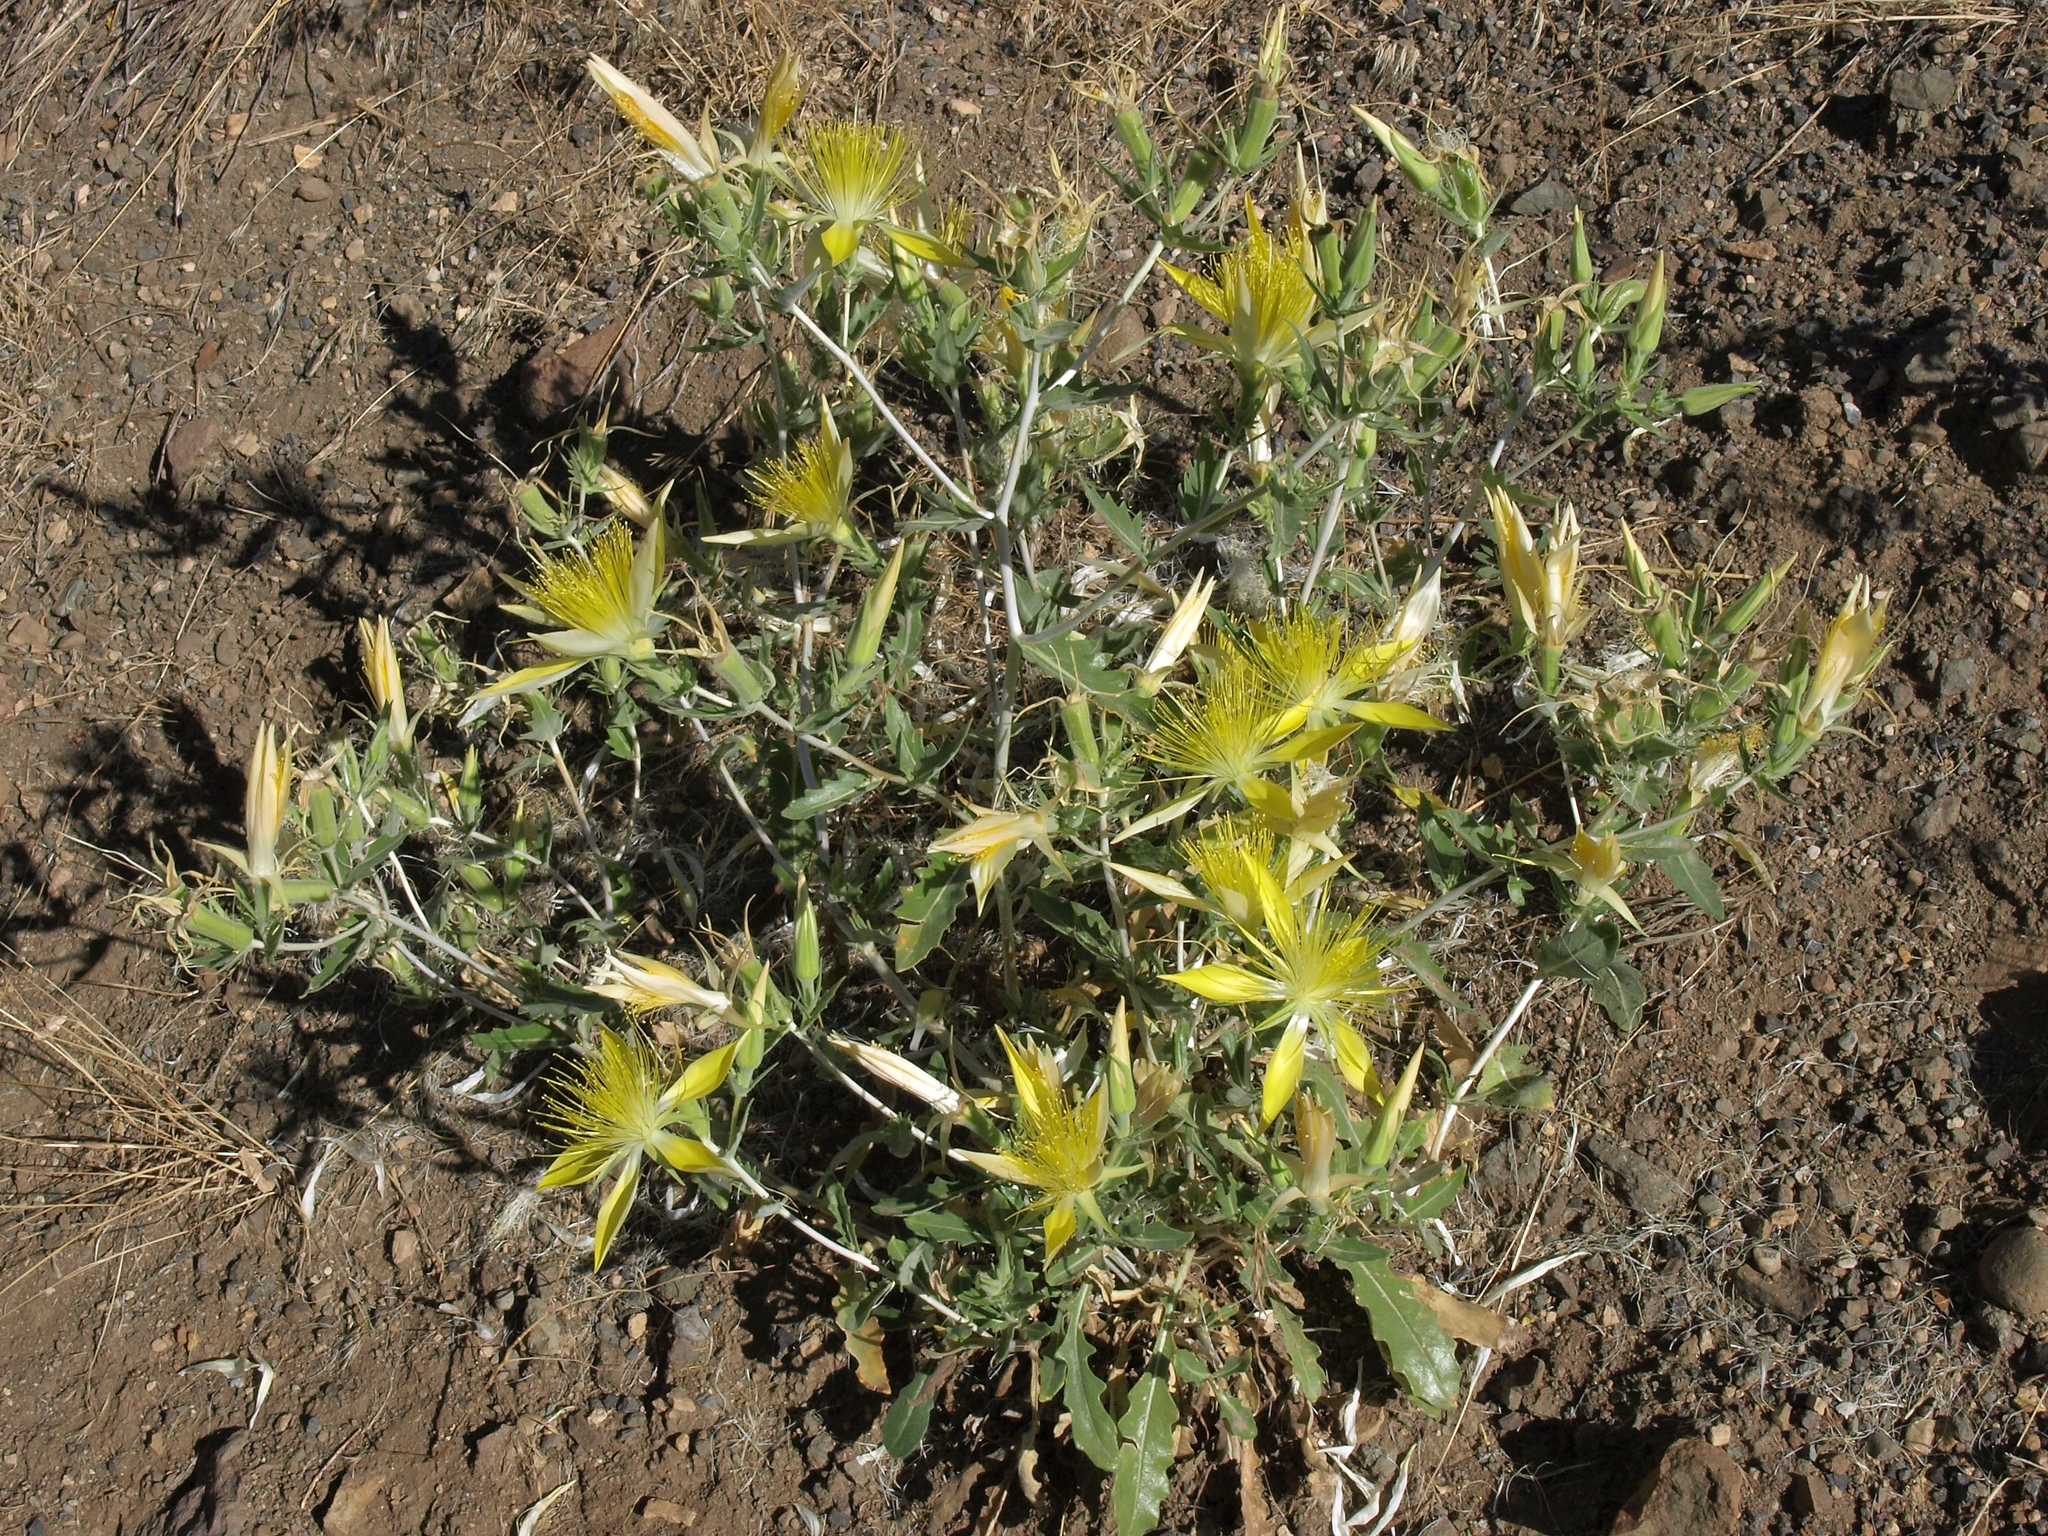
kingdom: Plantae
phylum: Tracheophyta
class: Magnoliopsida
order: Cornales
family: Loasaceae
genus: Mentzelia
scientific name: Mentzelia laevicaulis
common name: Smooth-stem blazingstar
